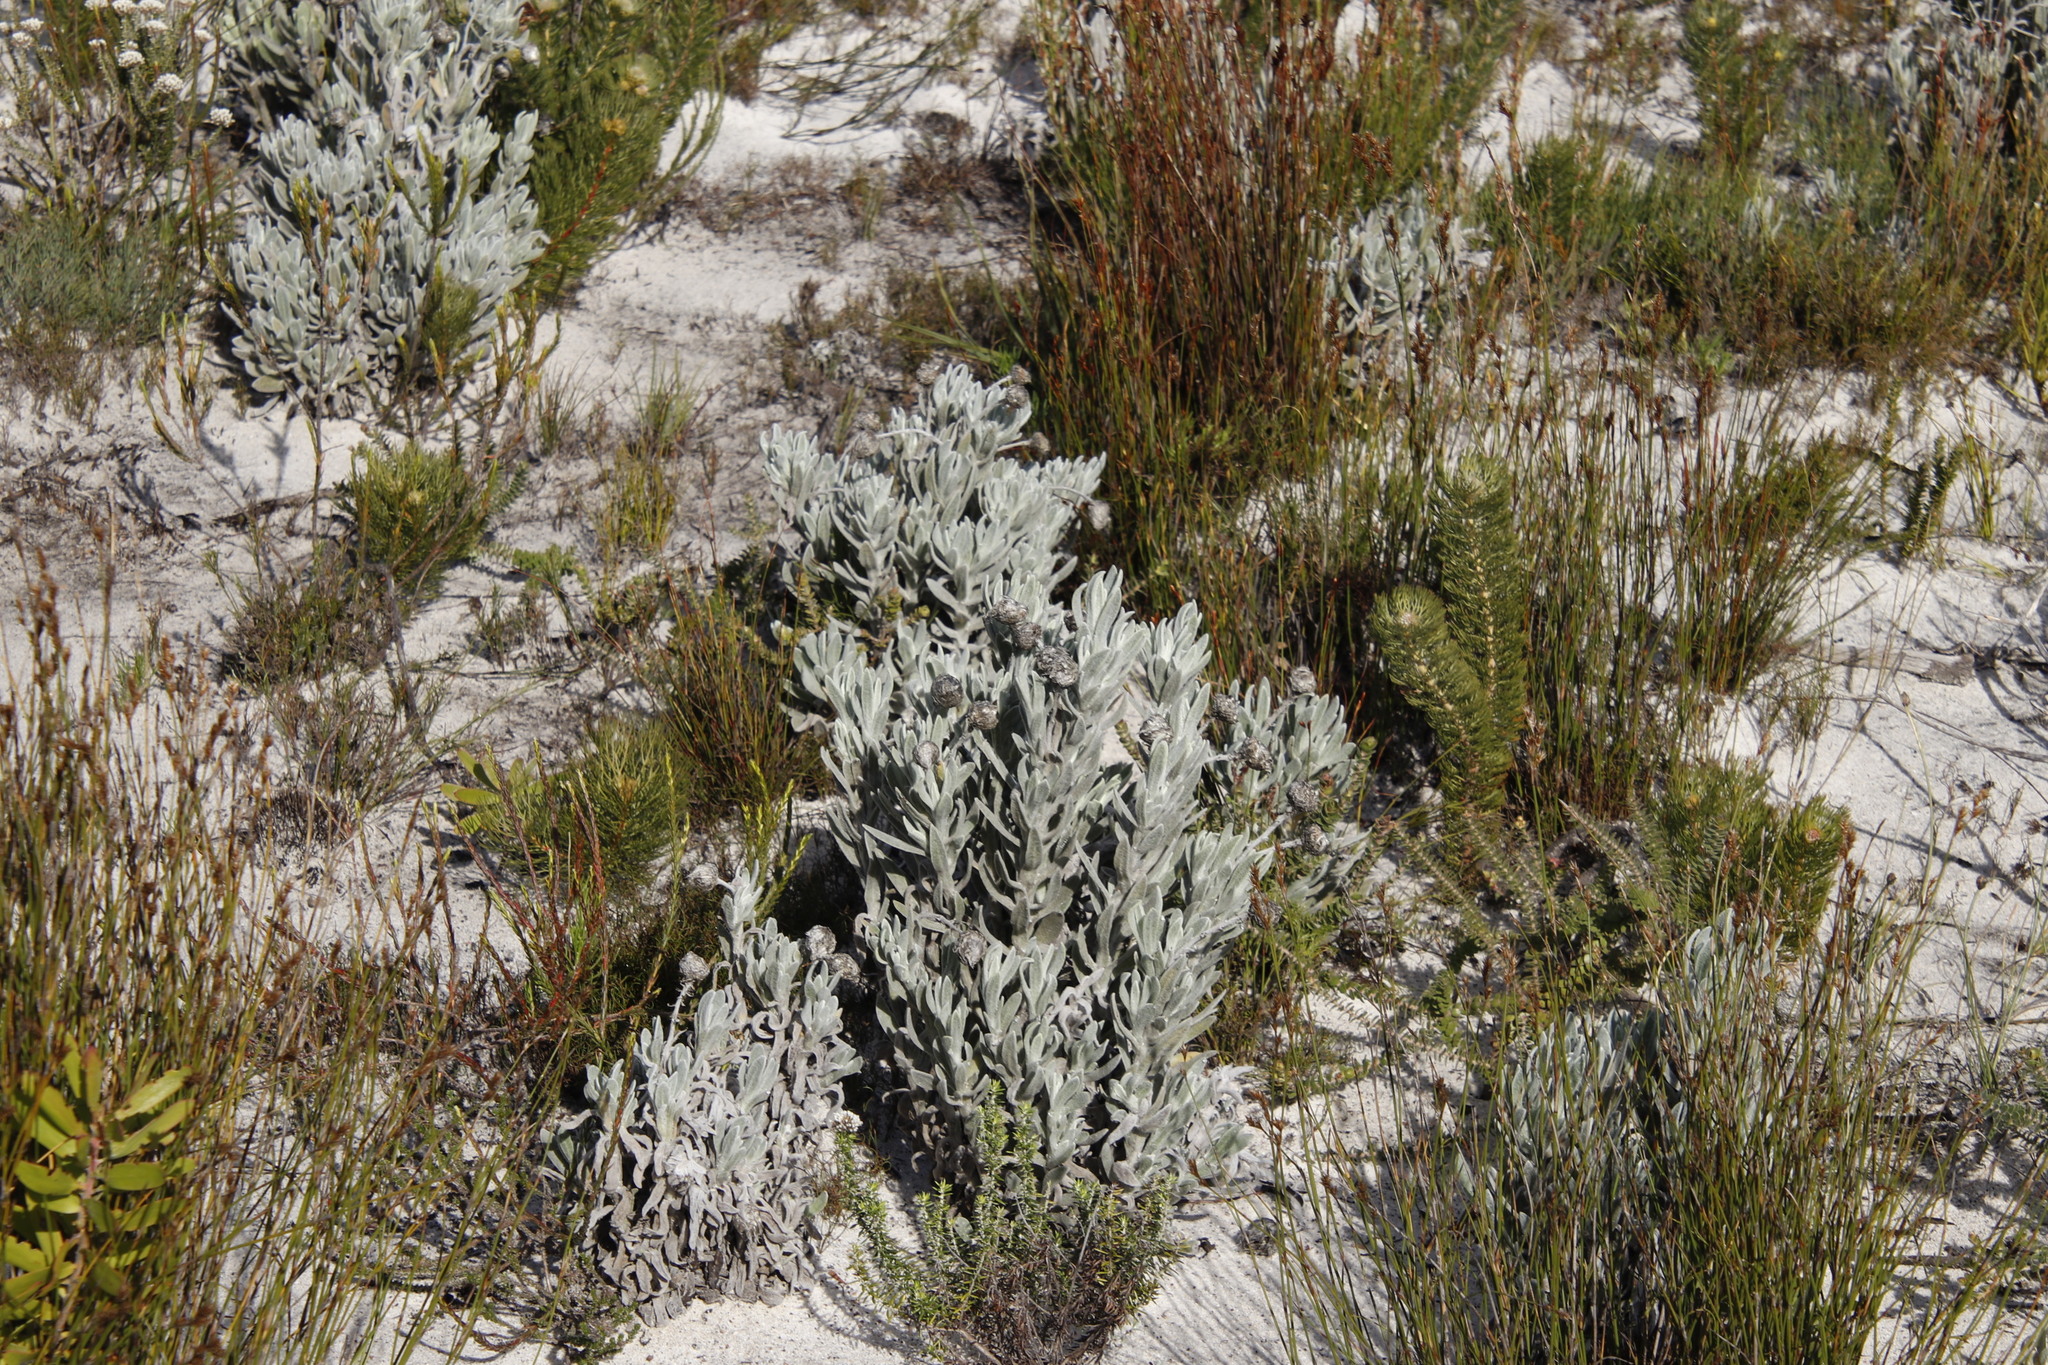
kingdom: Plantae
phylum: Tracheophyta
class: Magnoliopsida
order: Asterales
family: Asteraceae
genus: Syncarpha
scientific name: Syncarpha vestita
